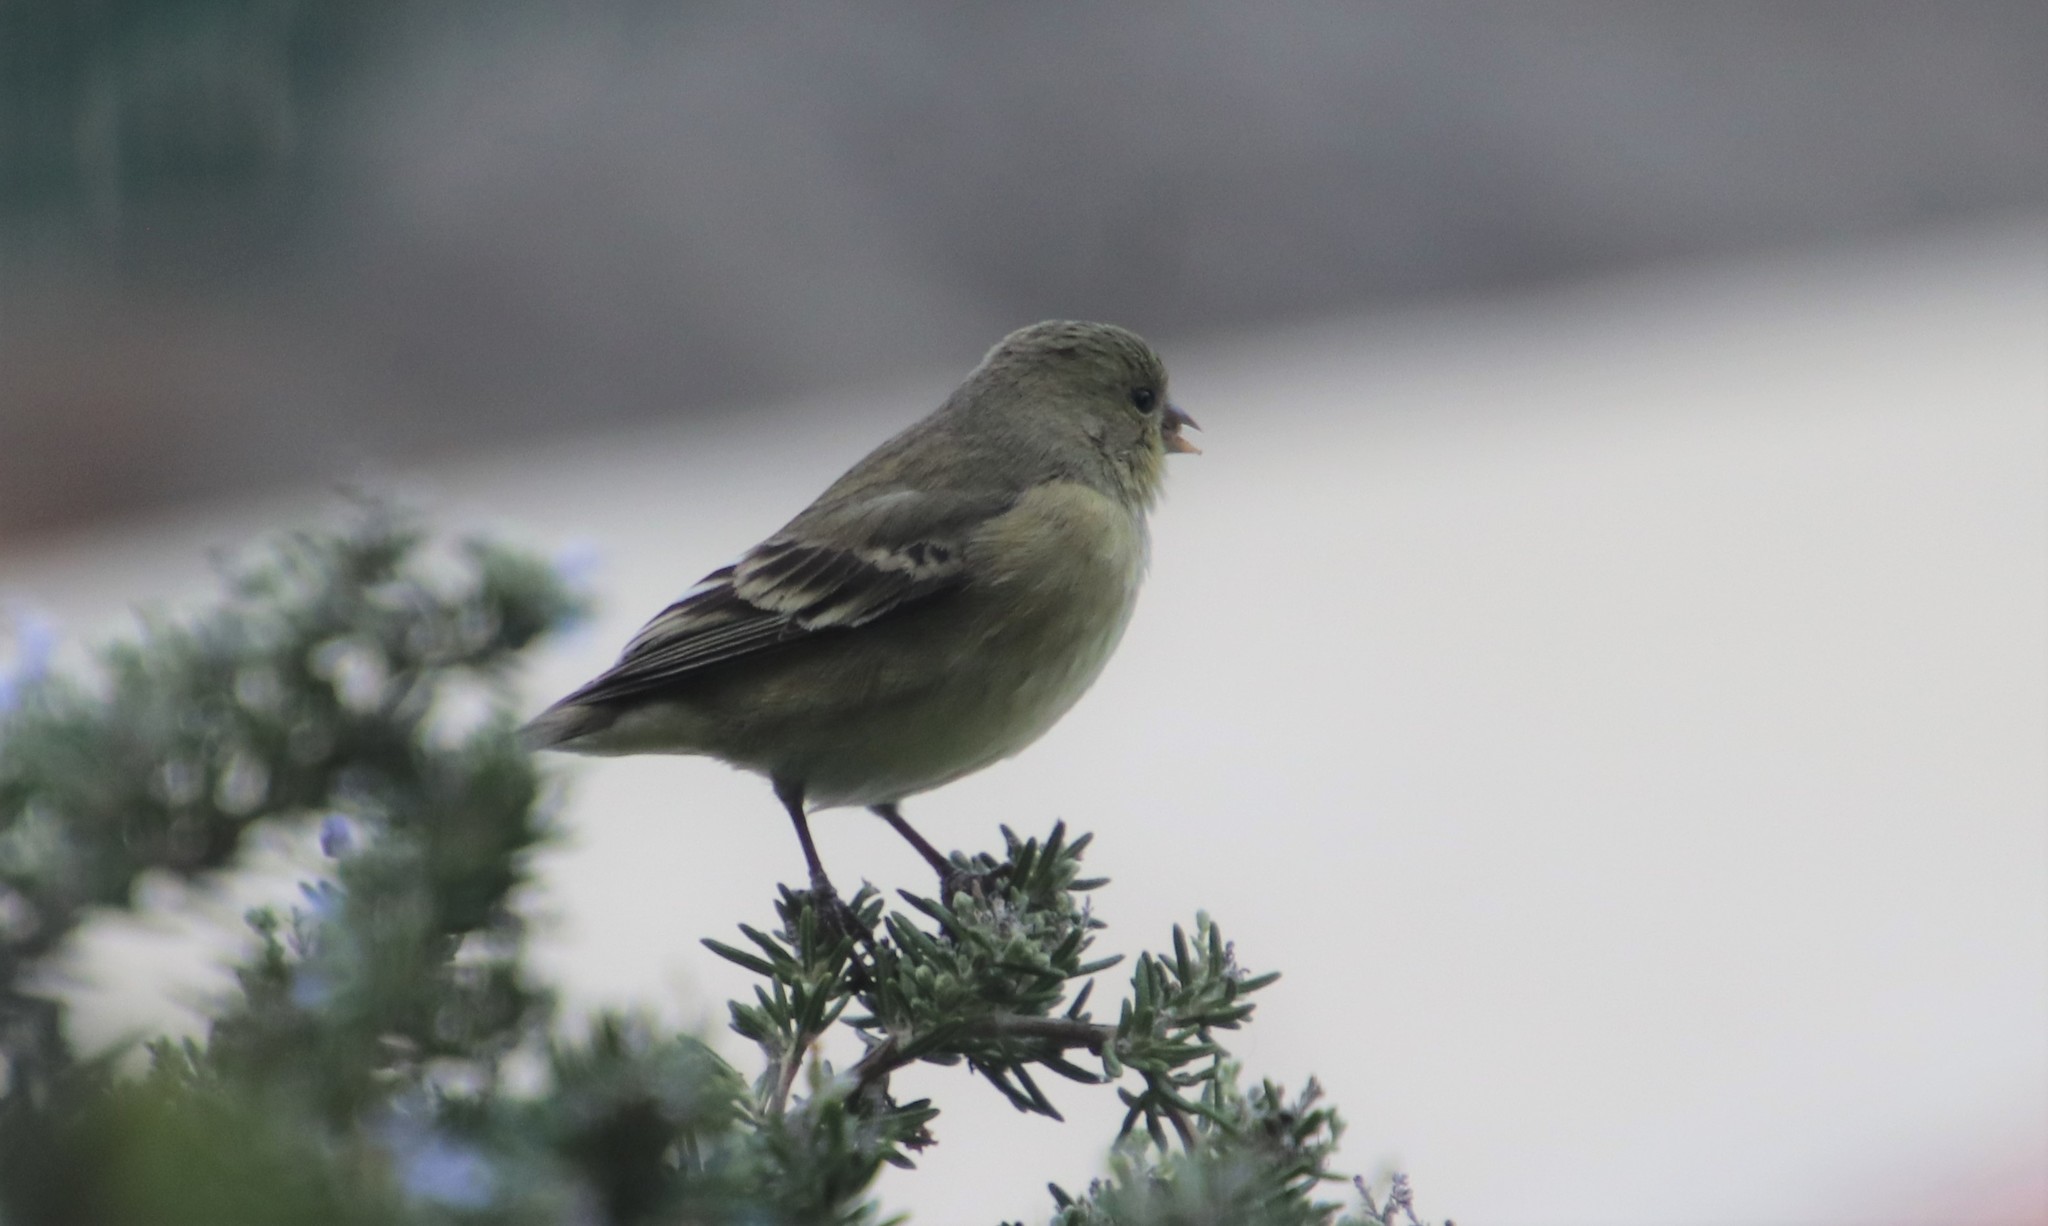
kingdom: Animalia
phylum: Chordata
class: Aves
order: Passeriformes
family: Fringillidae
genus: Spinus
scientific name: Spinus psaltria
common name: Lesser goldfinch
